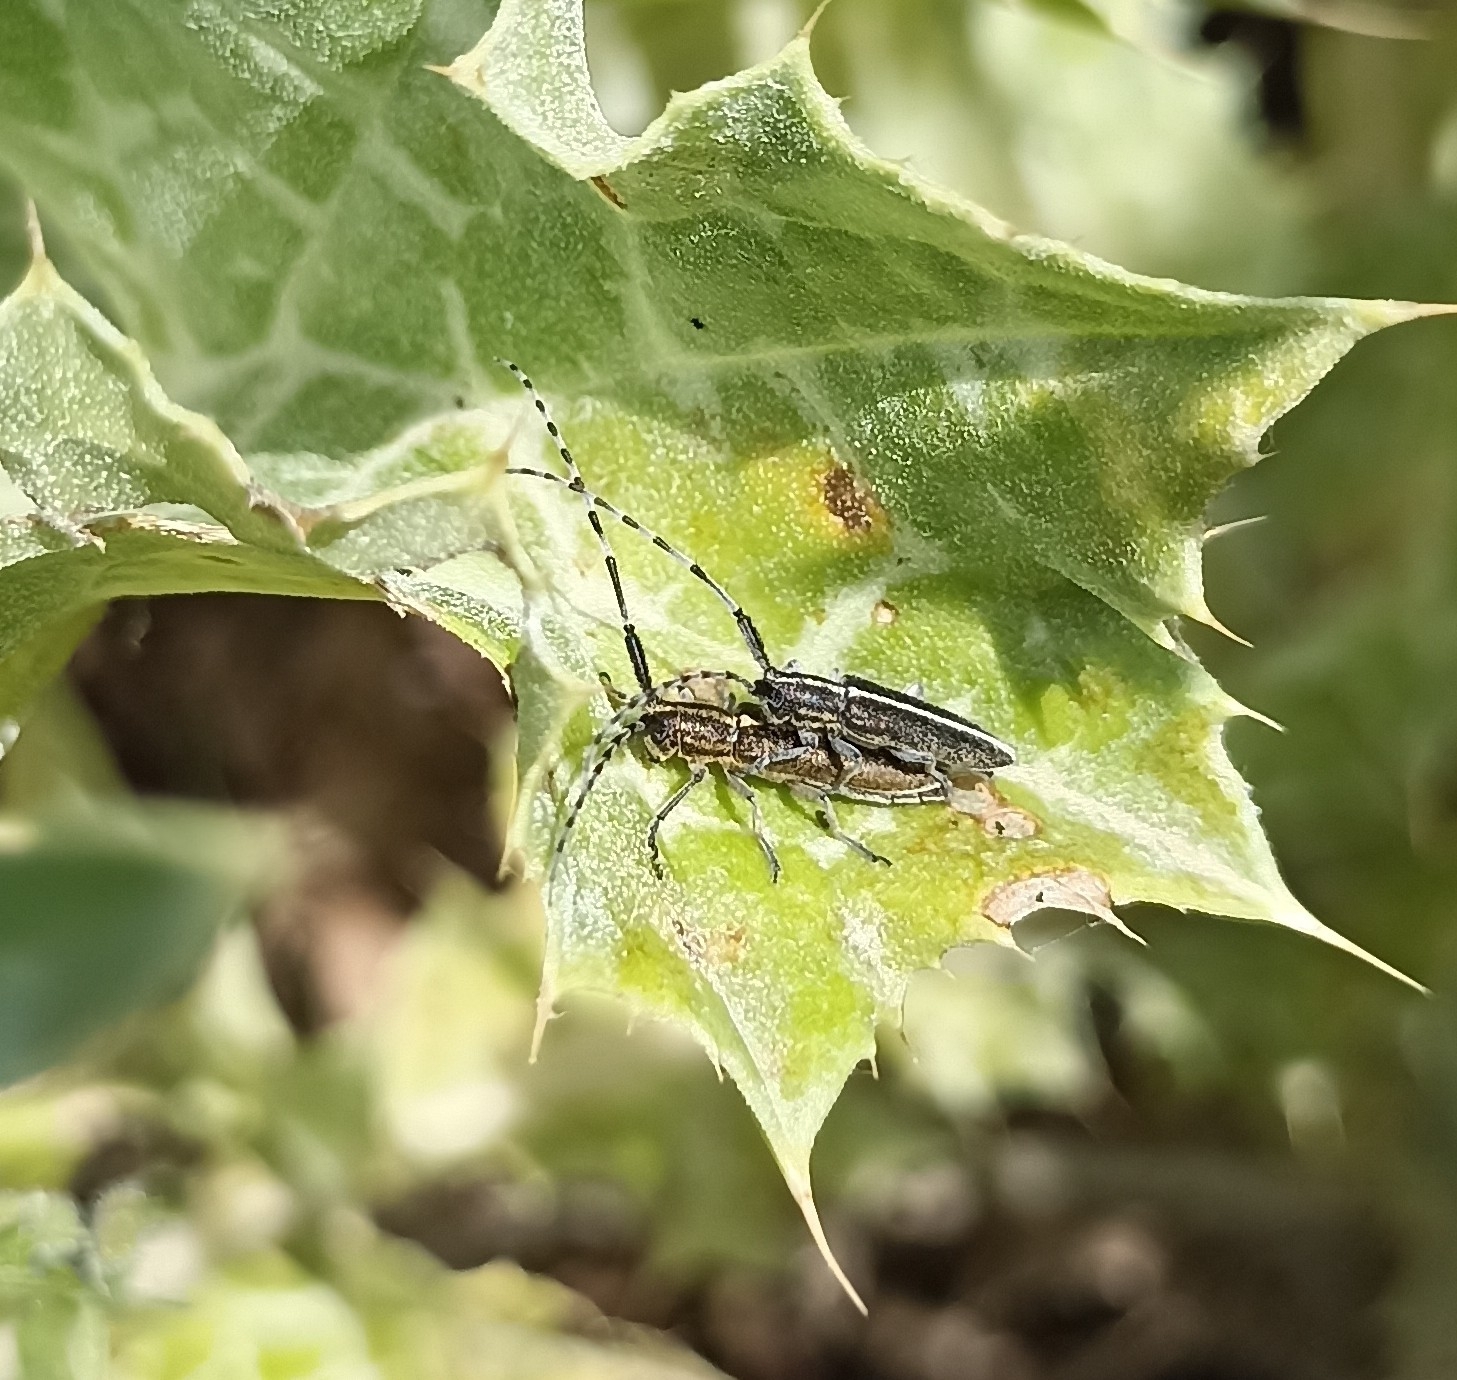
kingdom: Animalia
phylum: Arthropoda
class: Insecta
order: Coleoptera
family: Cerambycidae
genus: Agapanthia
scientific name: Agapanthia suturalis
